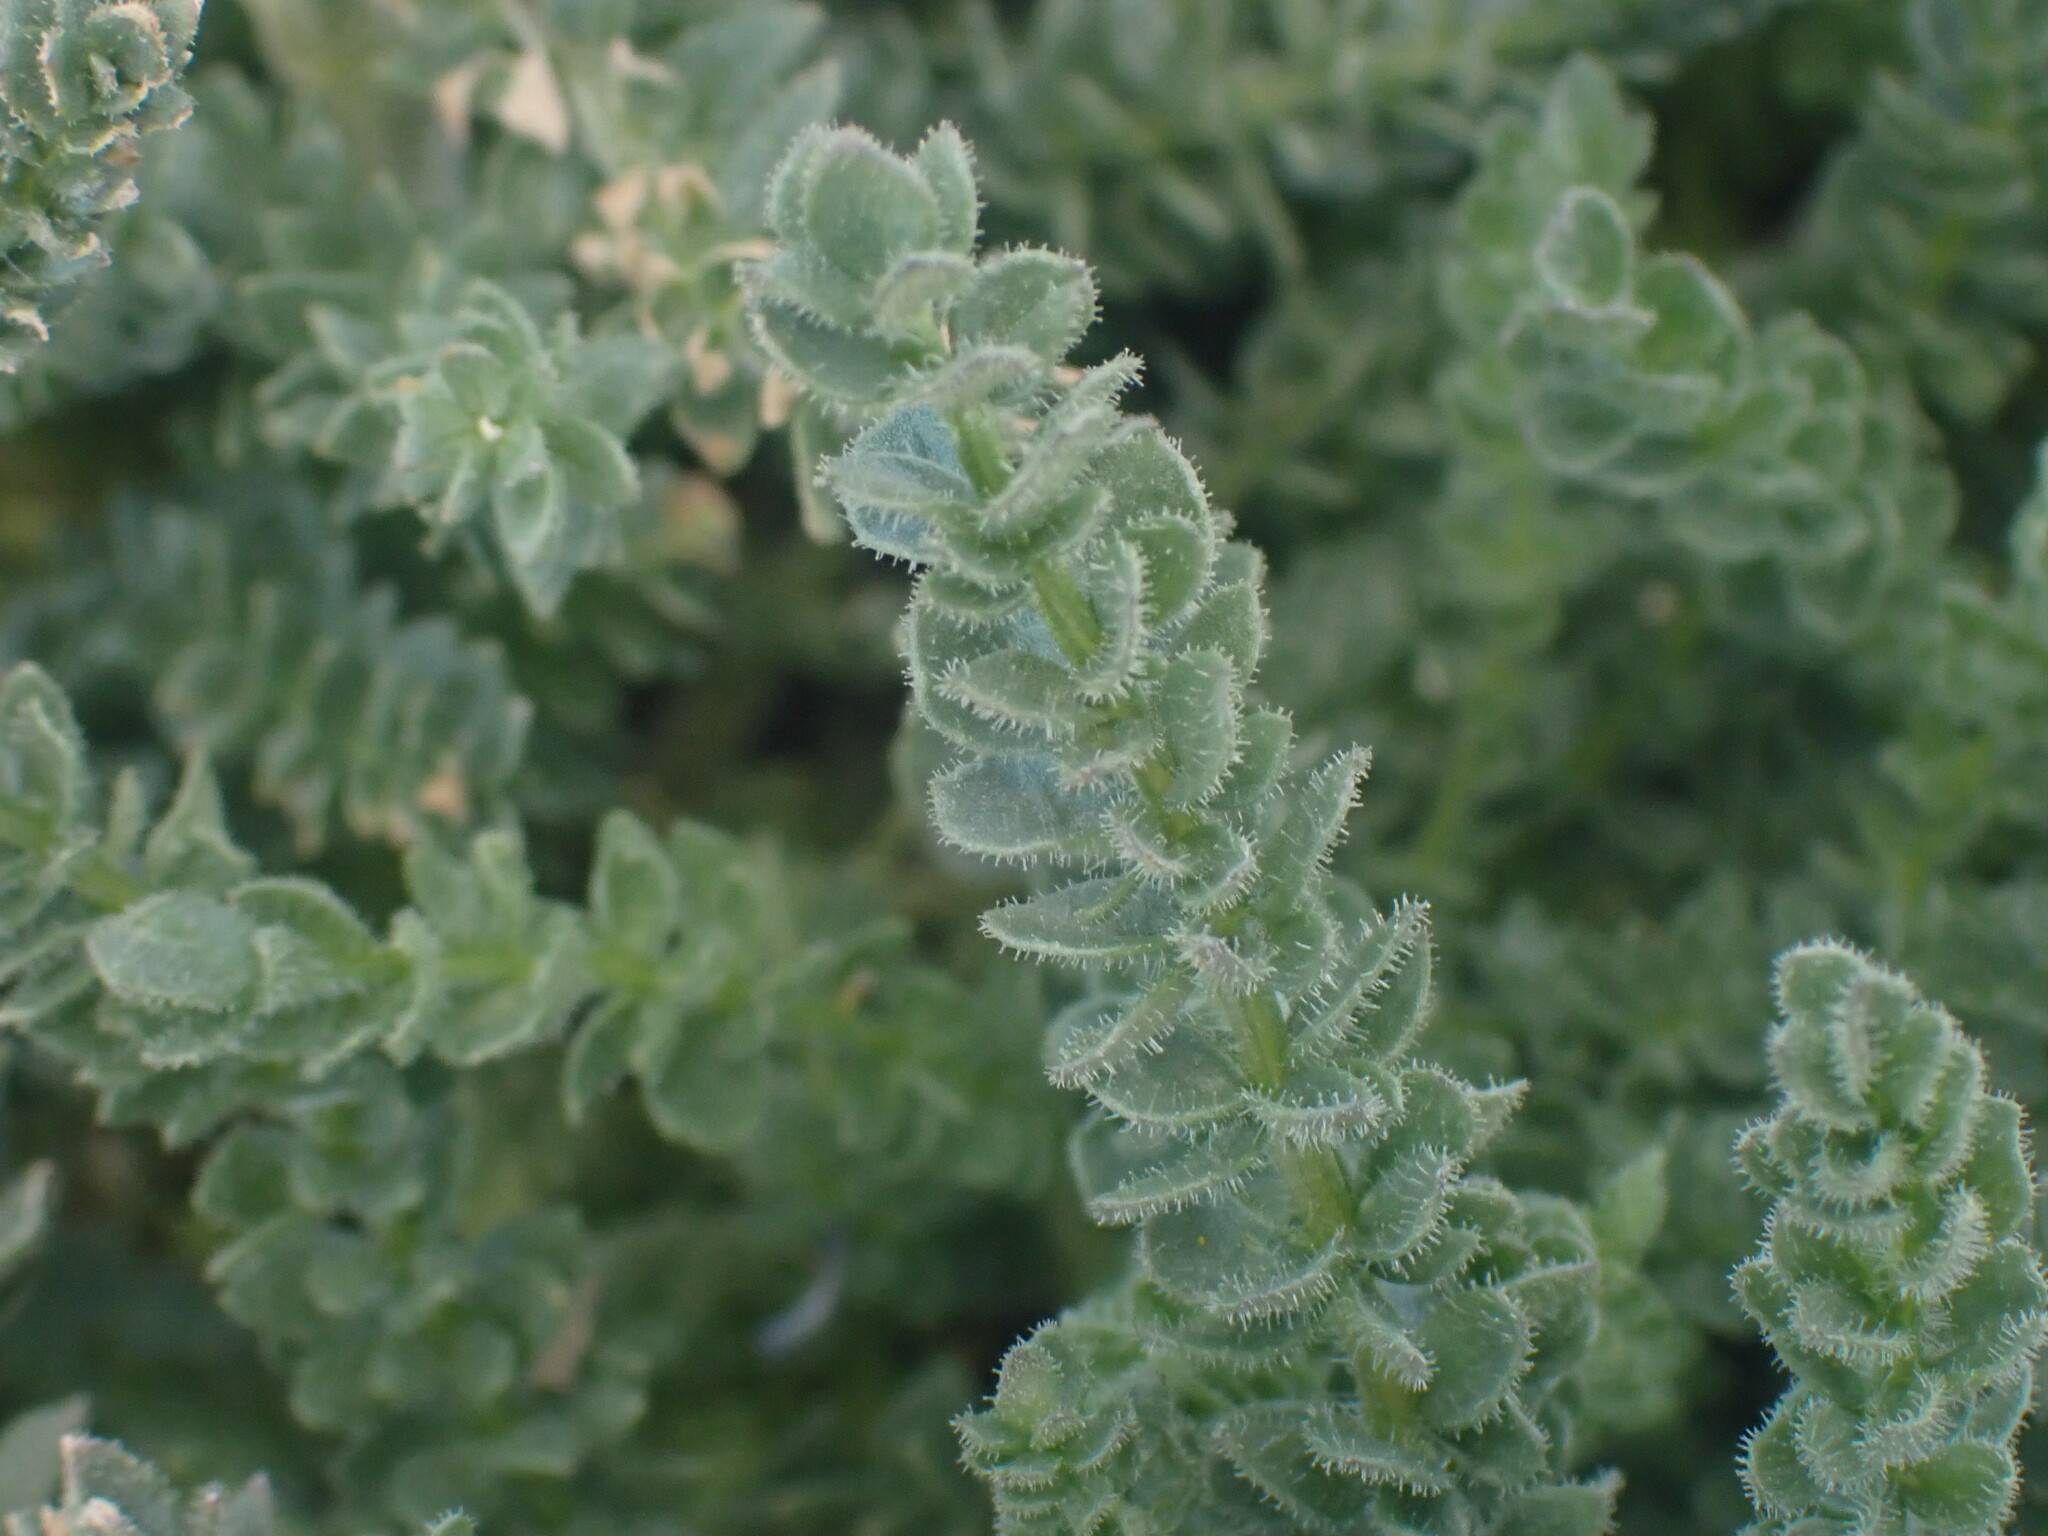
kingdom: Plantae
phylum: Tracheophyta
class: Magnoliopsida
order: Ericales
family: Polemoniaceae
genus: Polemonium
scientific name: Polemonium viscosum
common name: Skunk jacob's-ladder
